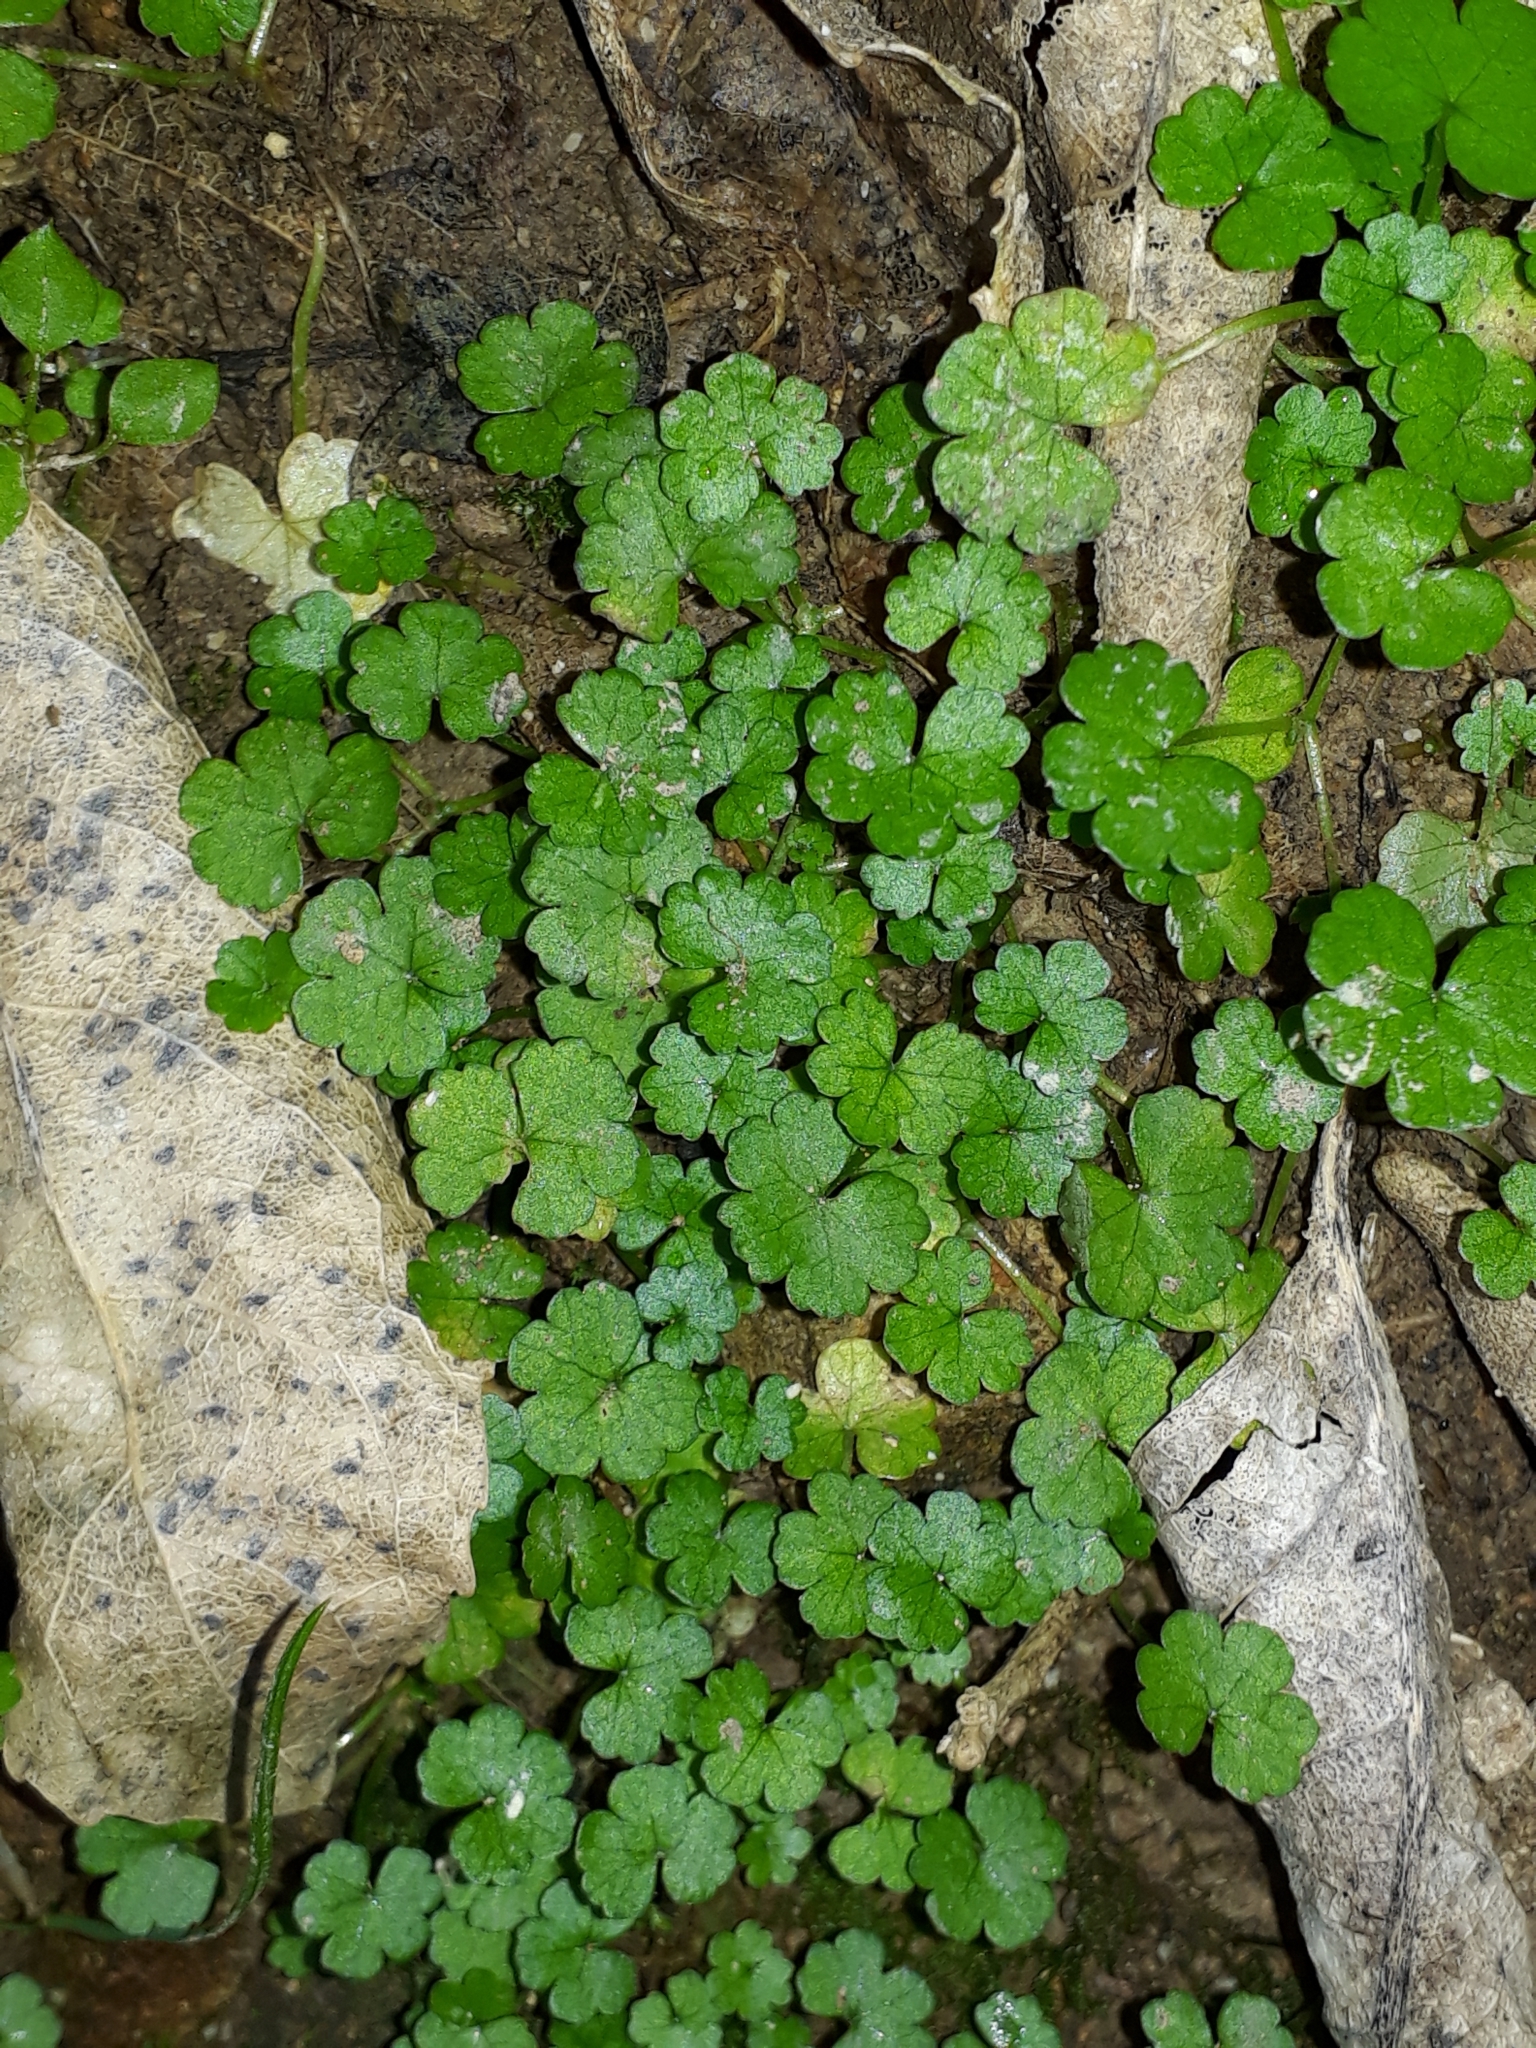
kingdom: Plantae
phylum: Tracheophyta
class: Magnoliopsida
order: Apiales
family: Araliaceae
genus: Hydrocotyle
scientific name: Hydrocotyle heteromeria
